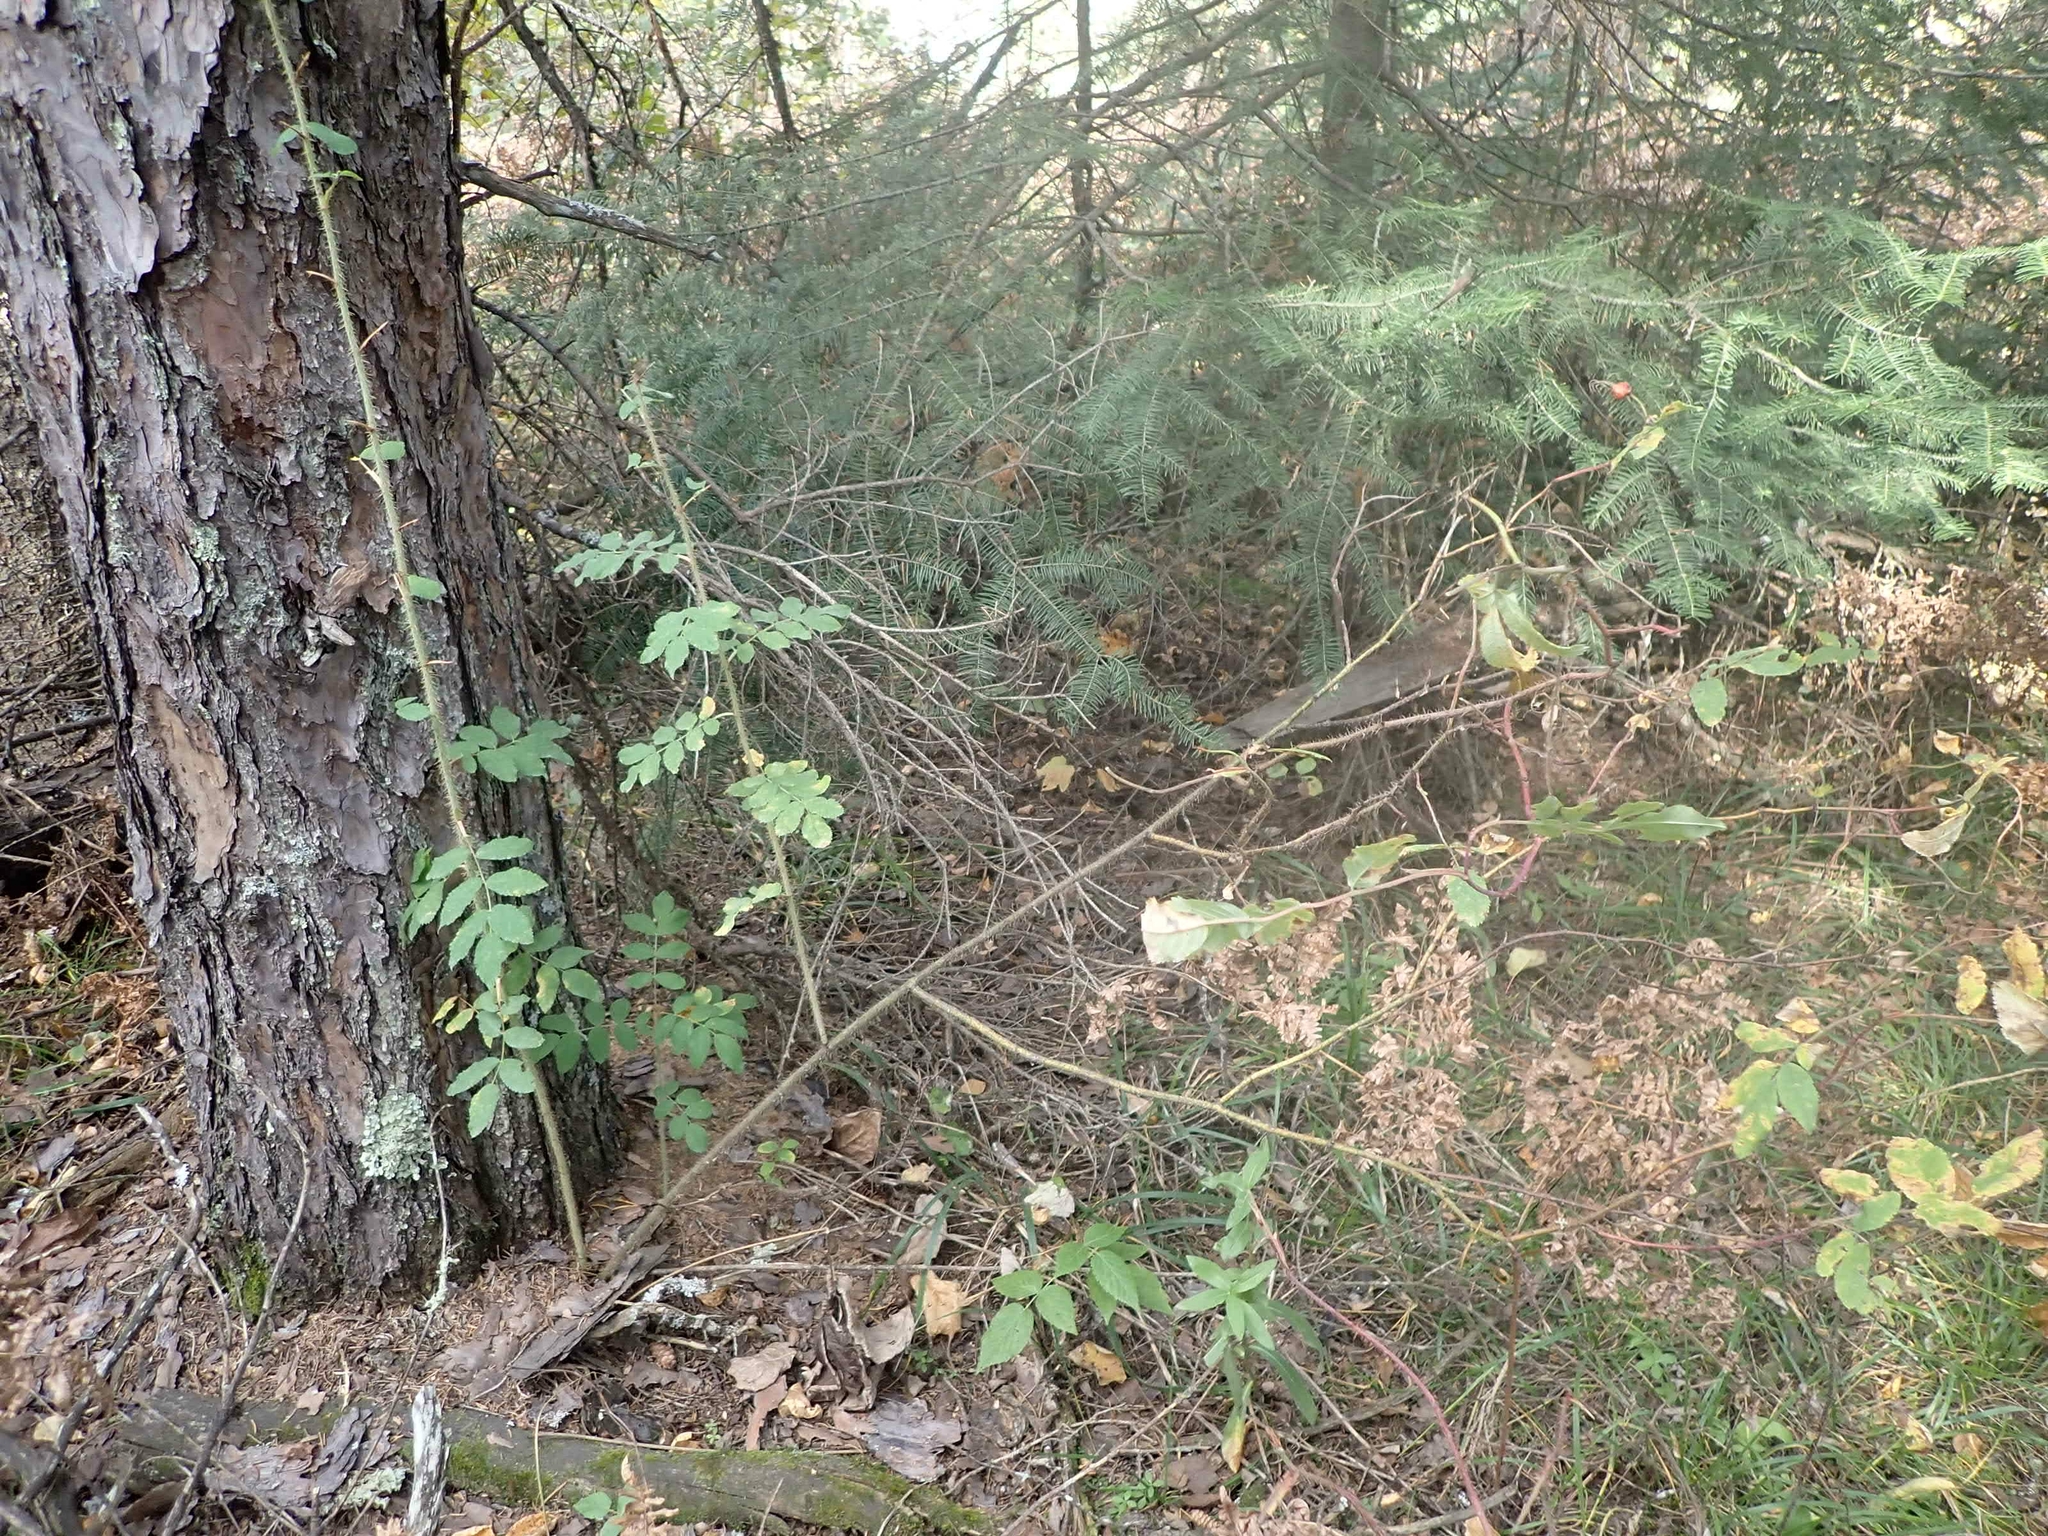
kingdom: Plantae
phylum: Tracheophyta
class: Magnoliopsida
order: Rosales
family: Rosaceae
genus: Rosa
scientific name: Rosa acicularis
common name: Prickly rose
